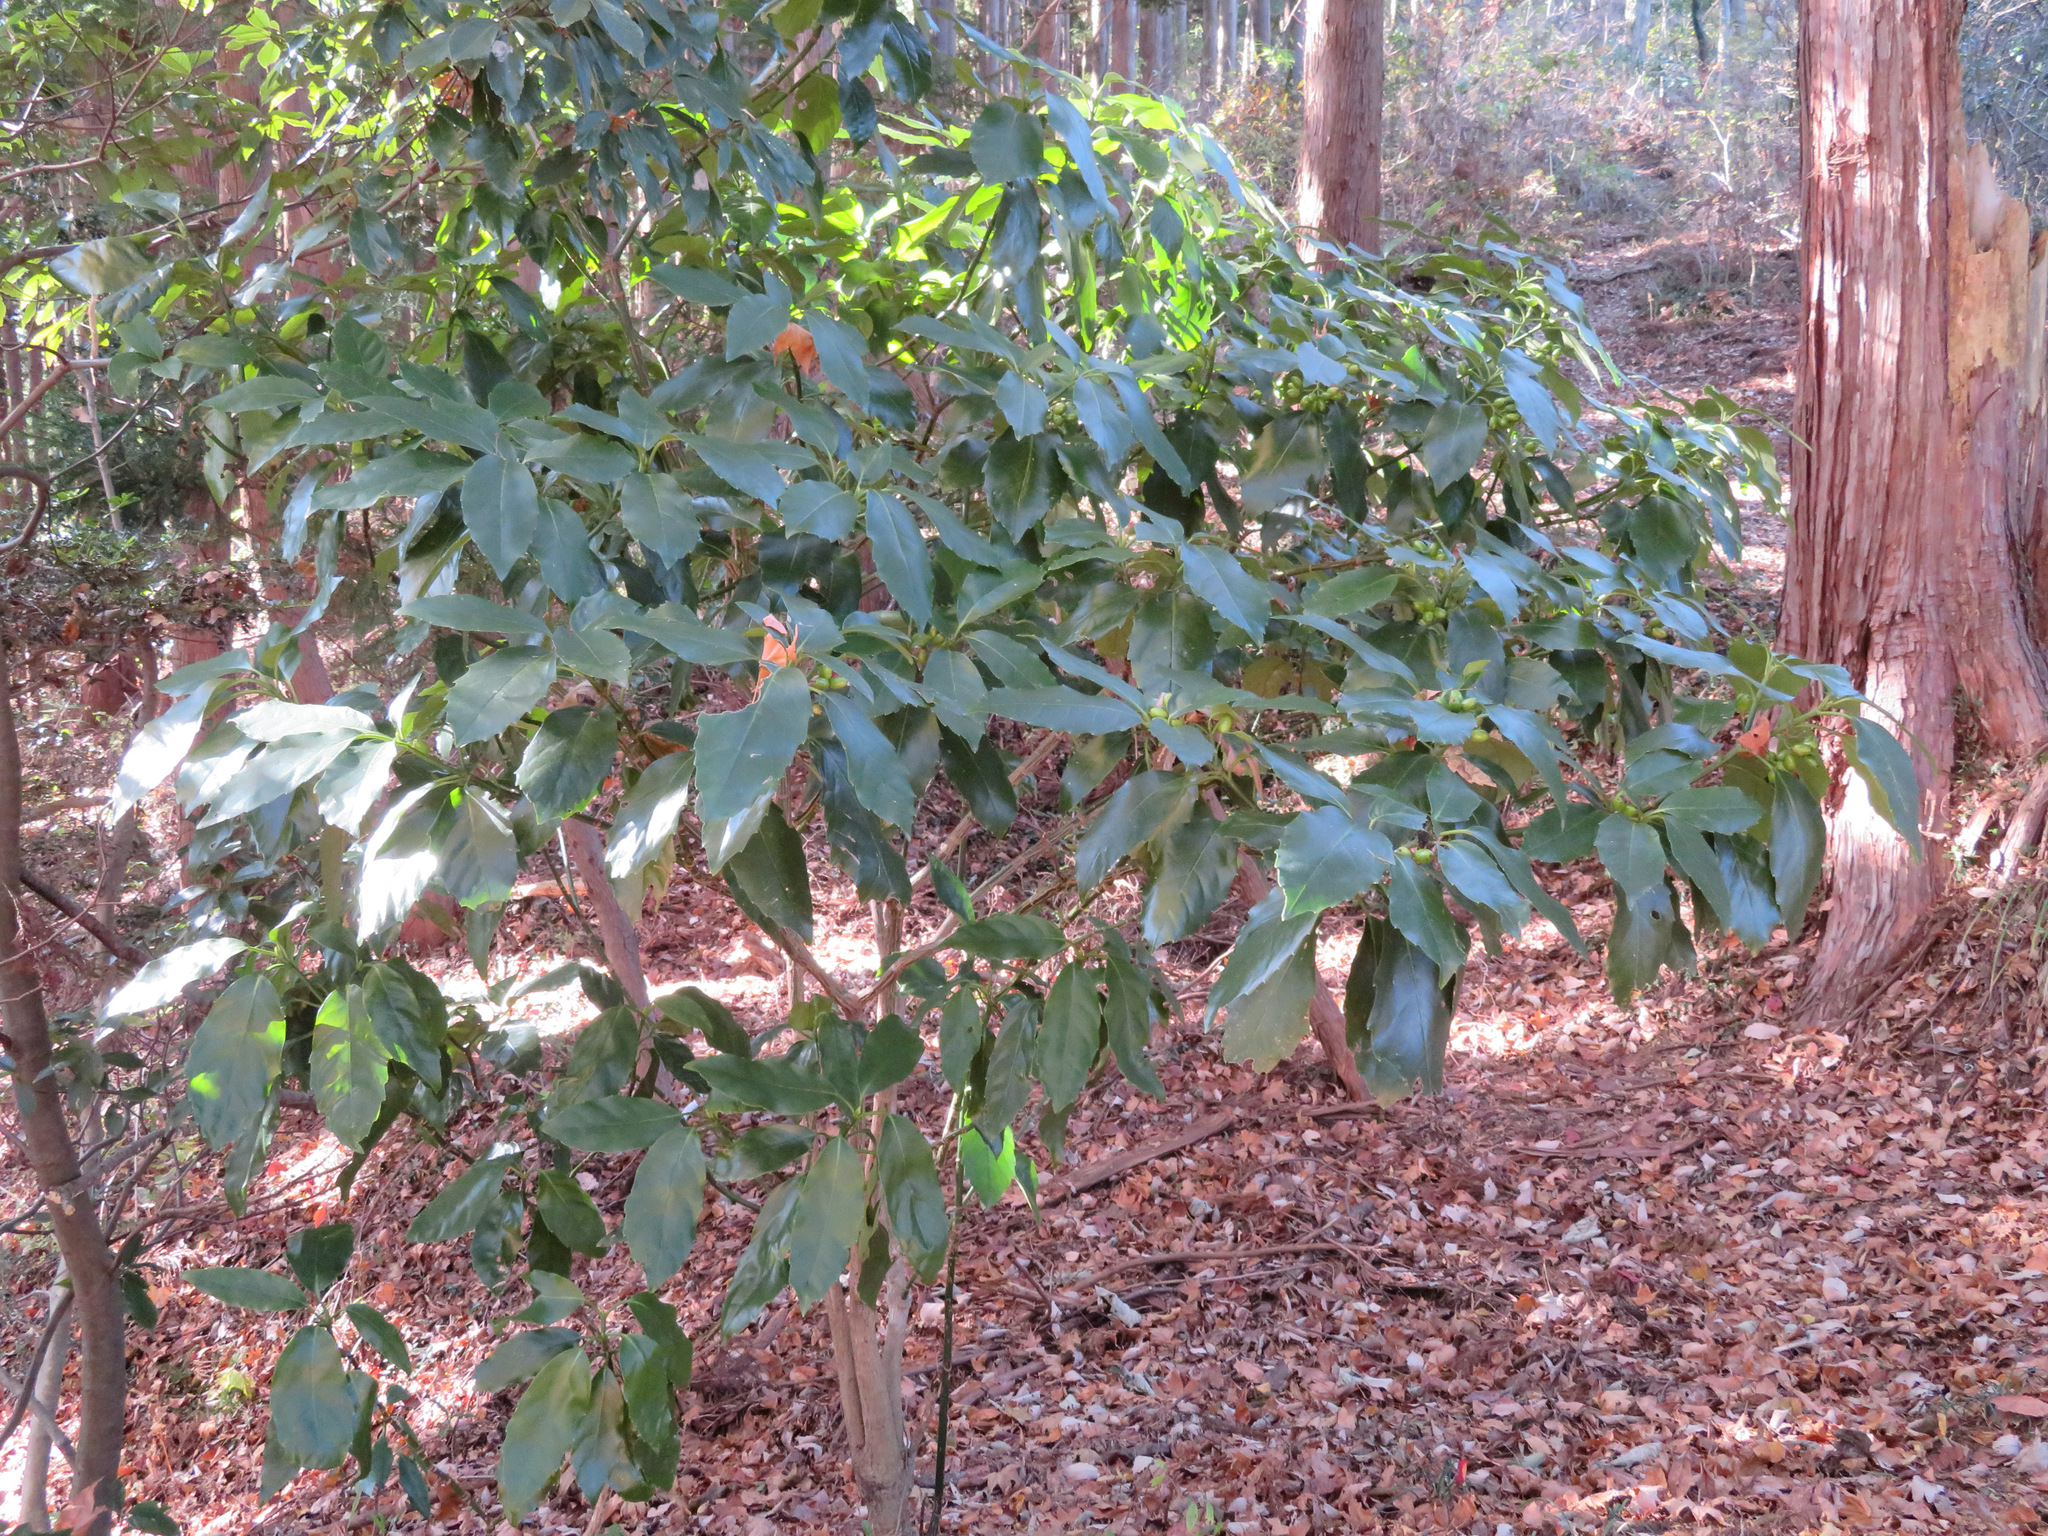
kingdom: Plantae
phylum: Tracheophyta
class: Magnoliopsida
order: Garryales
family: Garryaceae
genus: Aucuba
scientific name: Aucuba japonica
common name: Spotted-laurel
